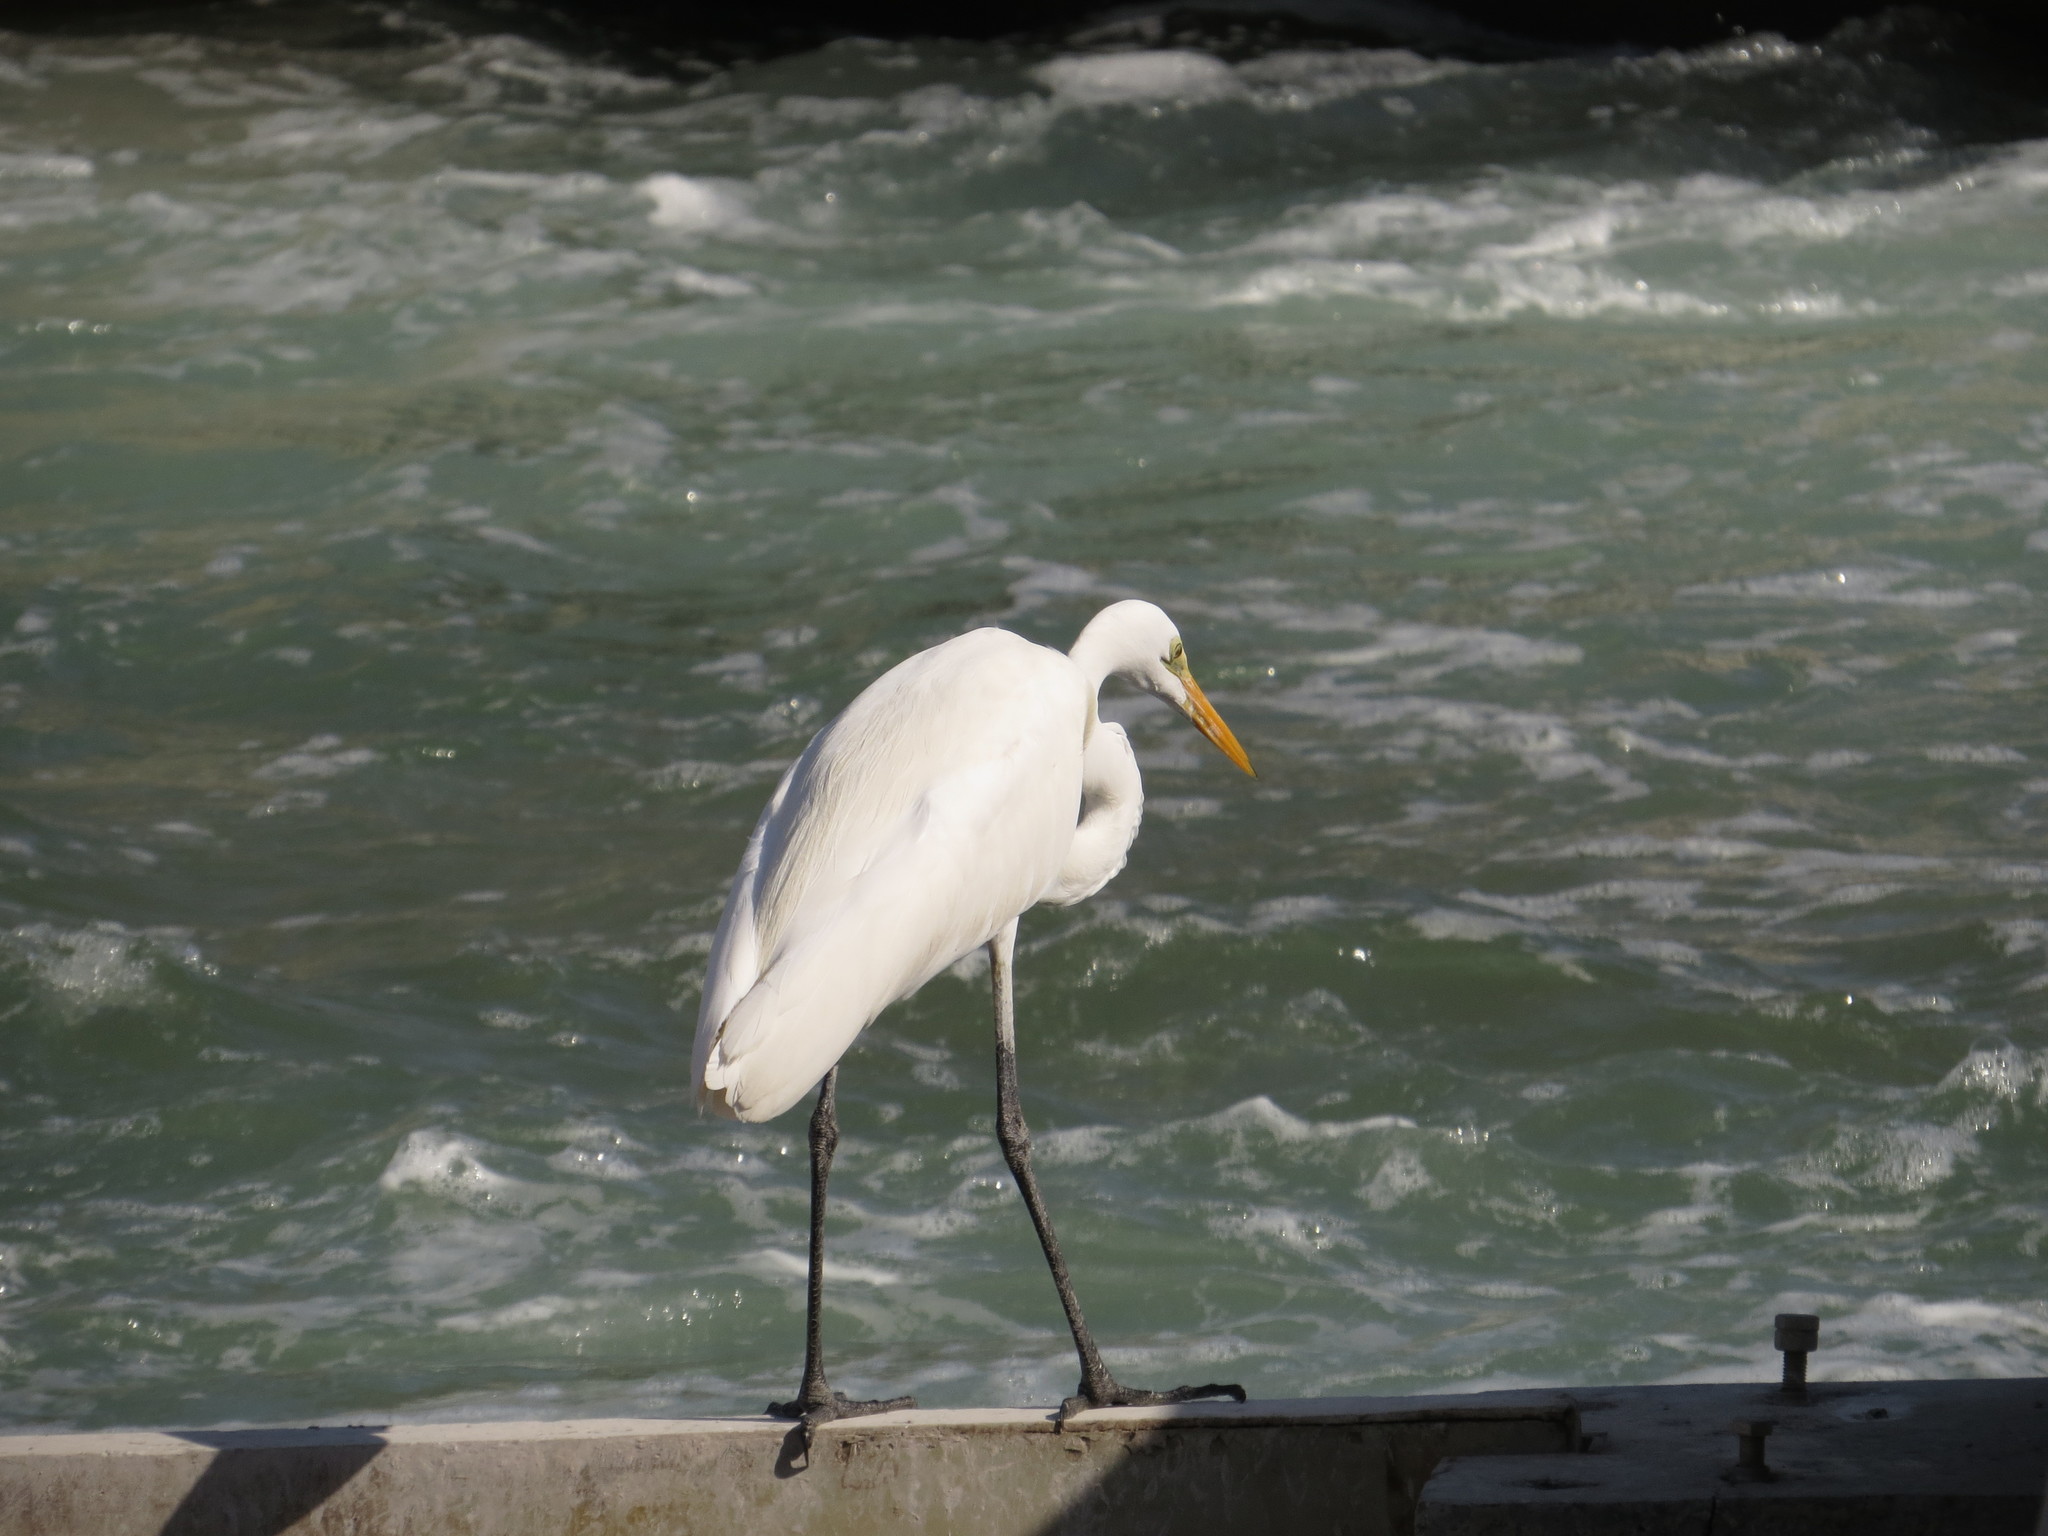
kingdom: Animalia
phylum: Chordata
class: Aves
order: Pelecaniformes
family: Ardeidae
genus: Ardea
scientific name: Ardea alba
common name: Great egret
